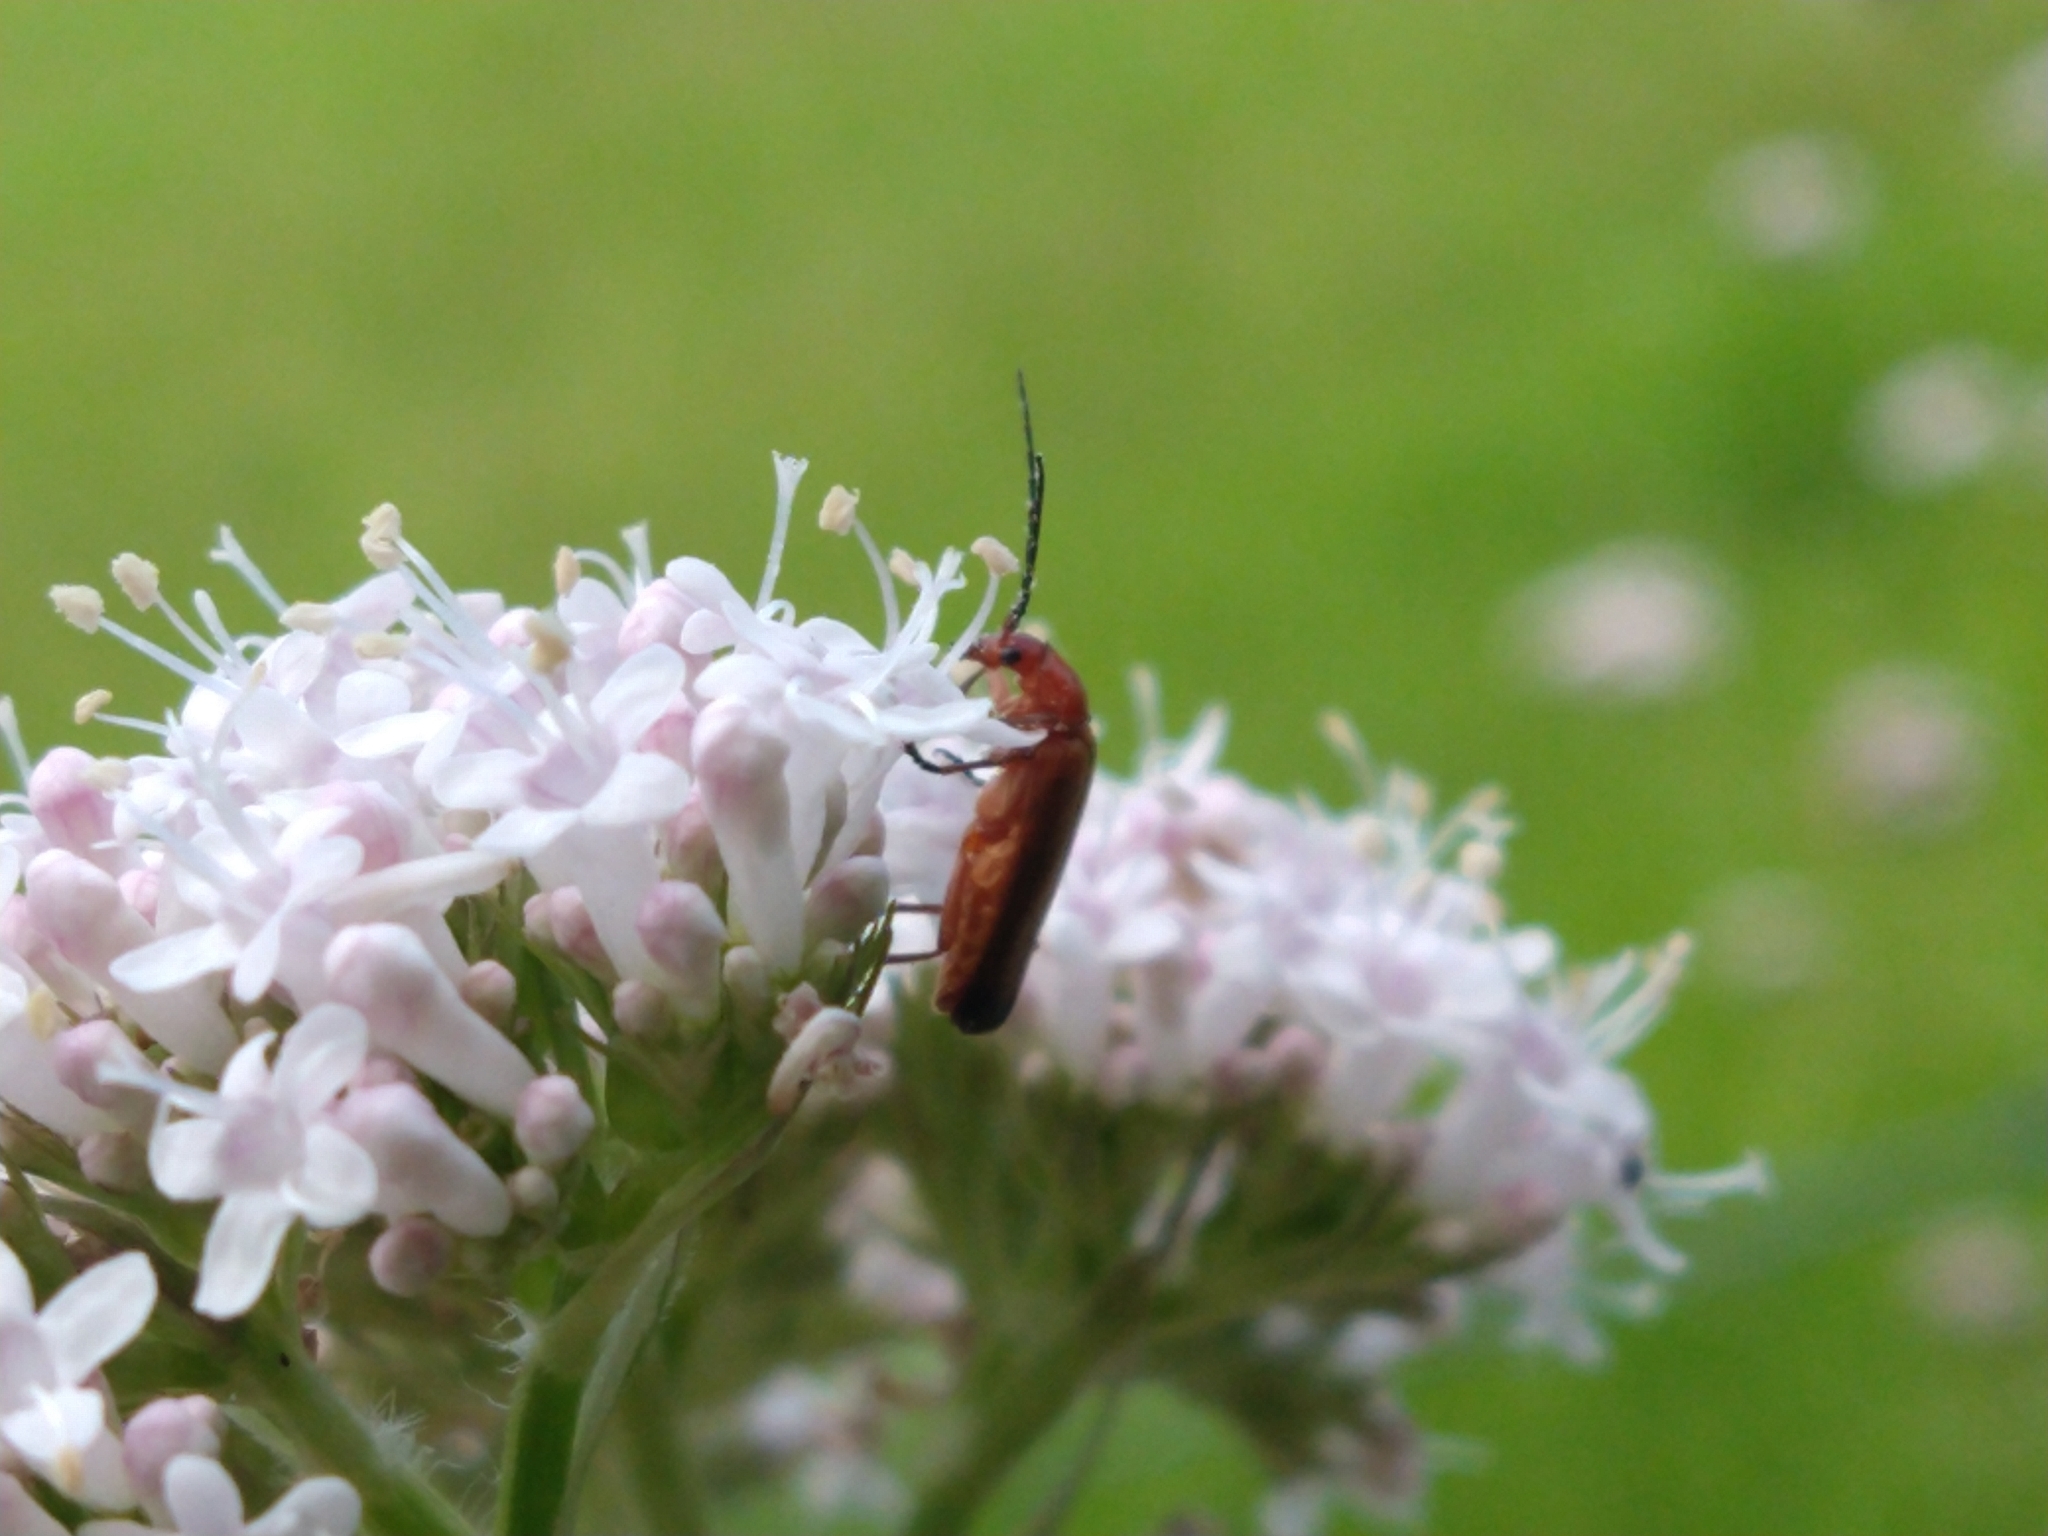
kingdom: Animalia
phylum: Arthropoda
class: Insecta
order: Coleoptera
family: Cantharidae
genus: Rhagonycha
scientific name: Rhagonycha fulva
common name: Common red soldier beetle
